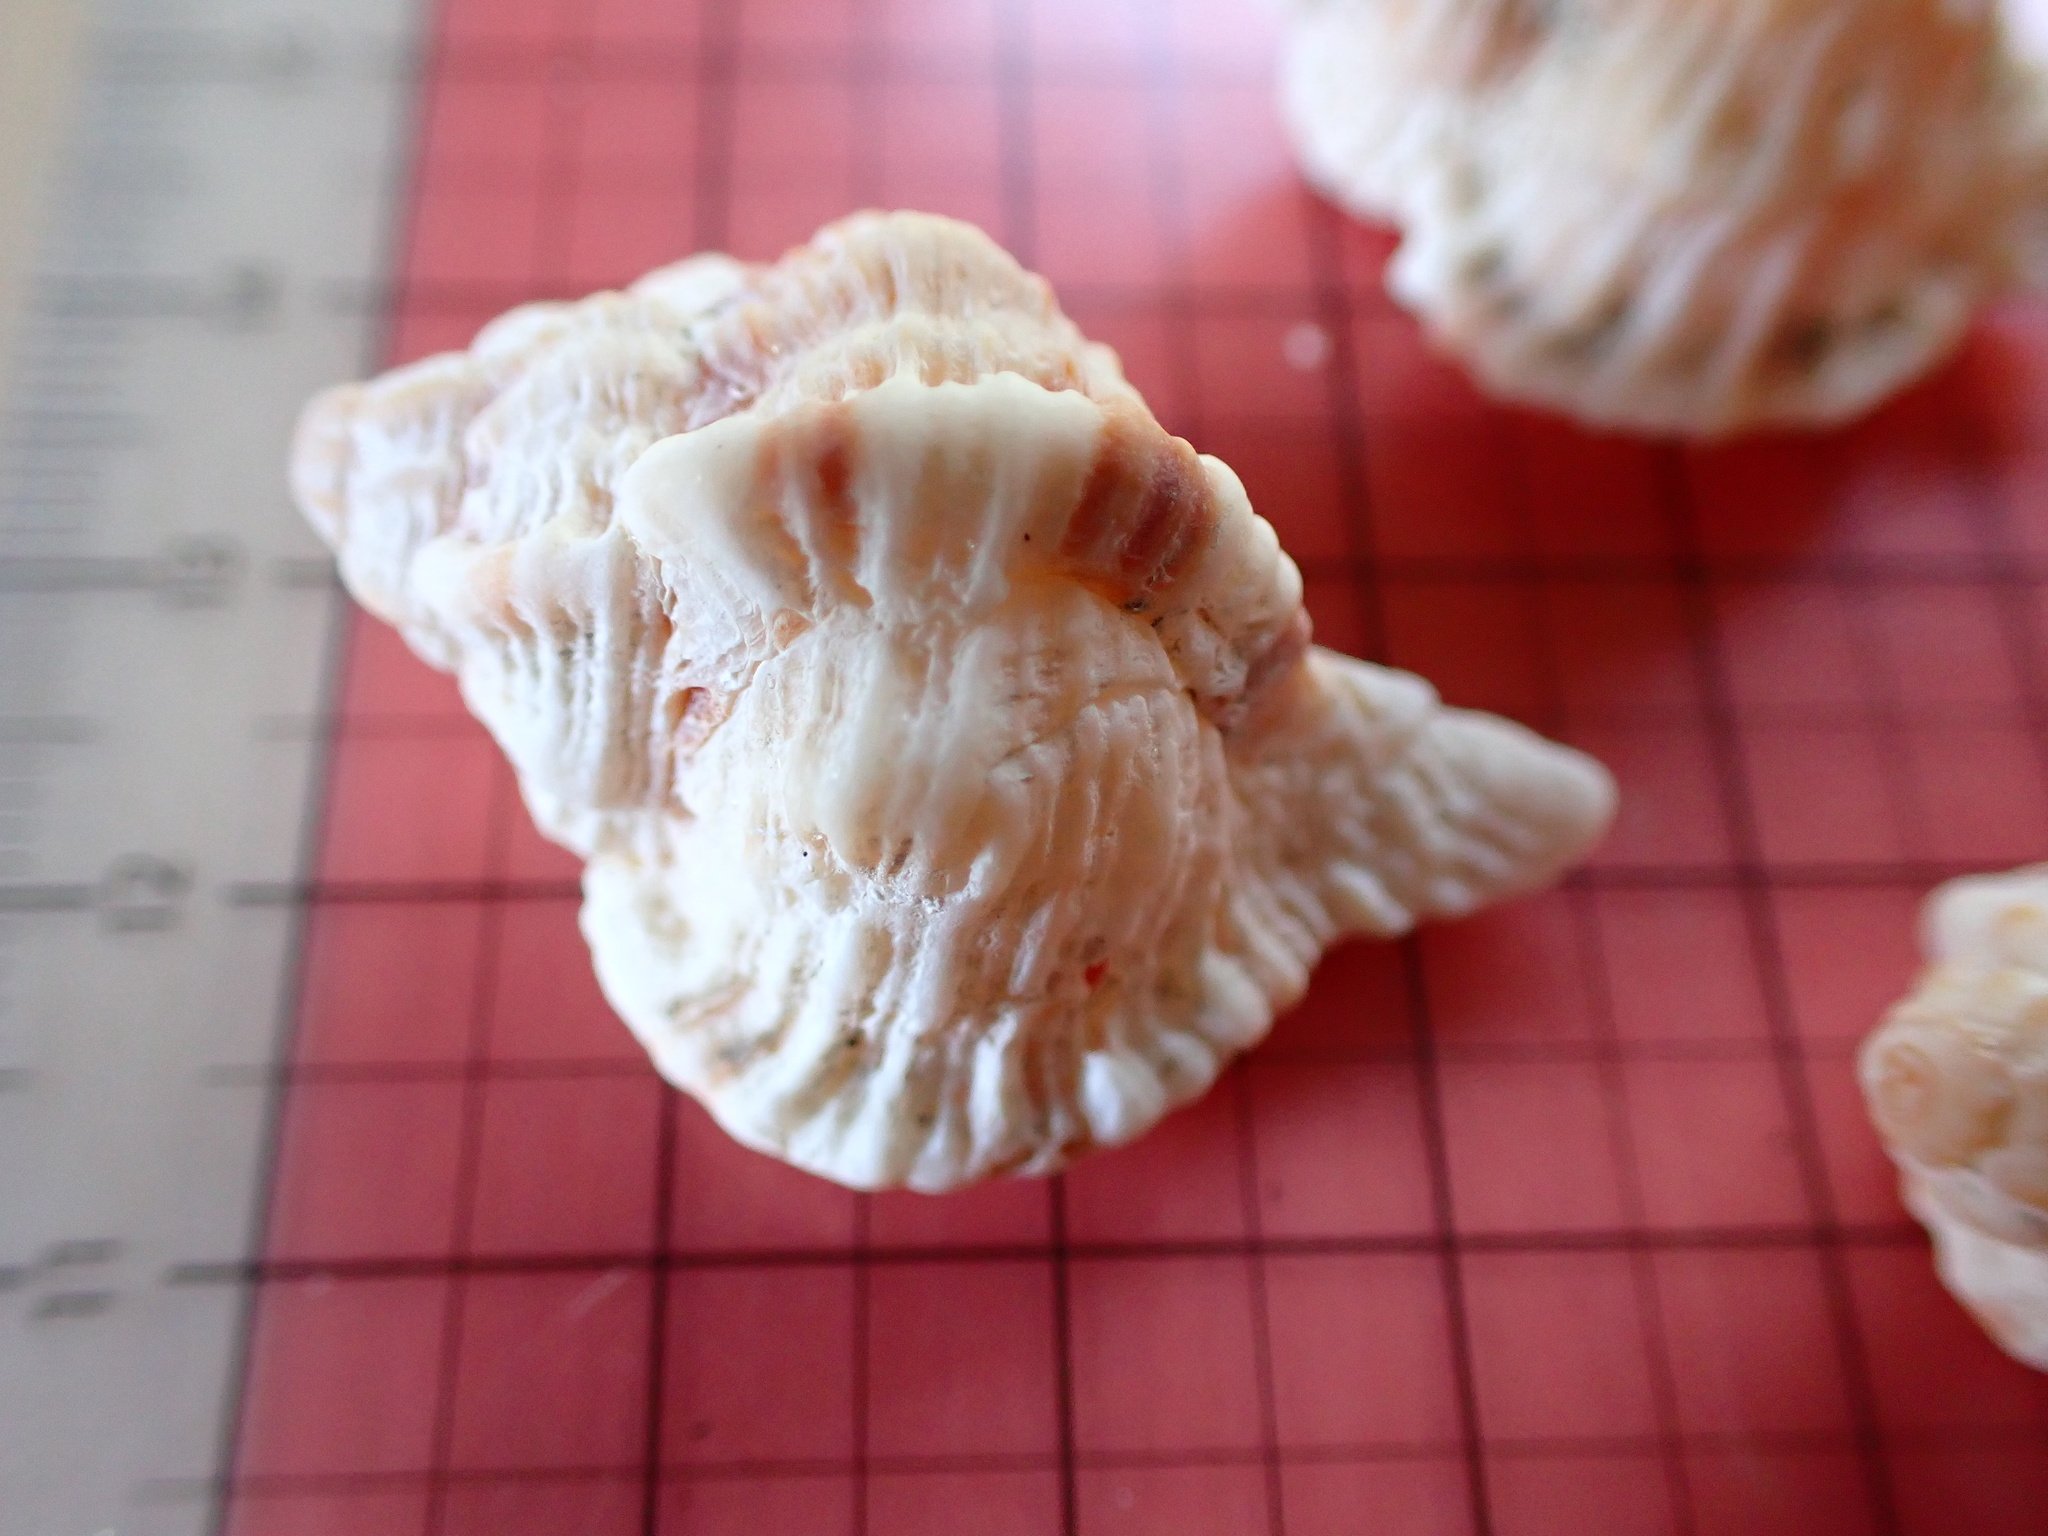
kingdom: Animalia
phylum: Mollusca
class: Gastropoda
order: Neogastropoda
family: Muricidae
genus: Phyllonotus
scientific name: Phyllonotus pomum
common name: Apple murex
